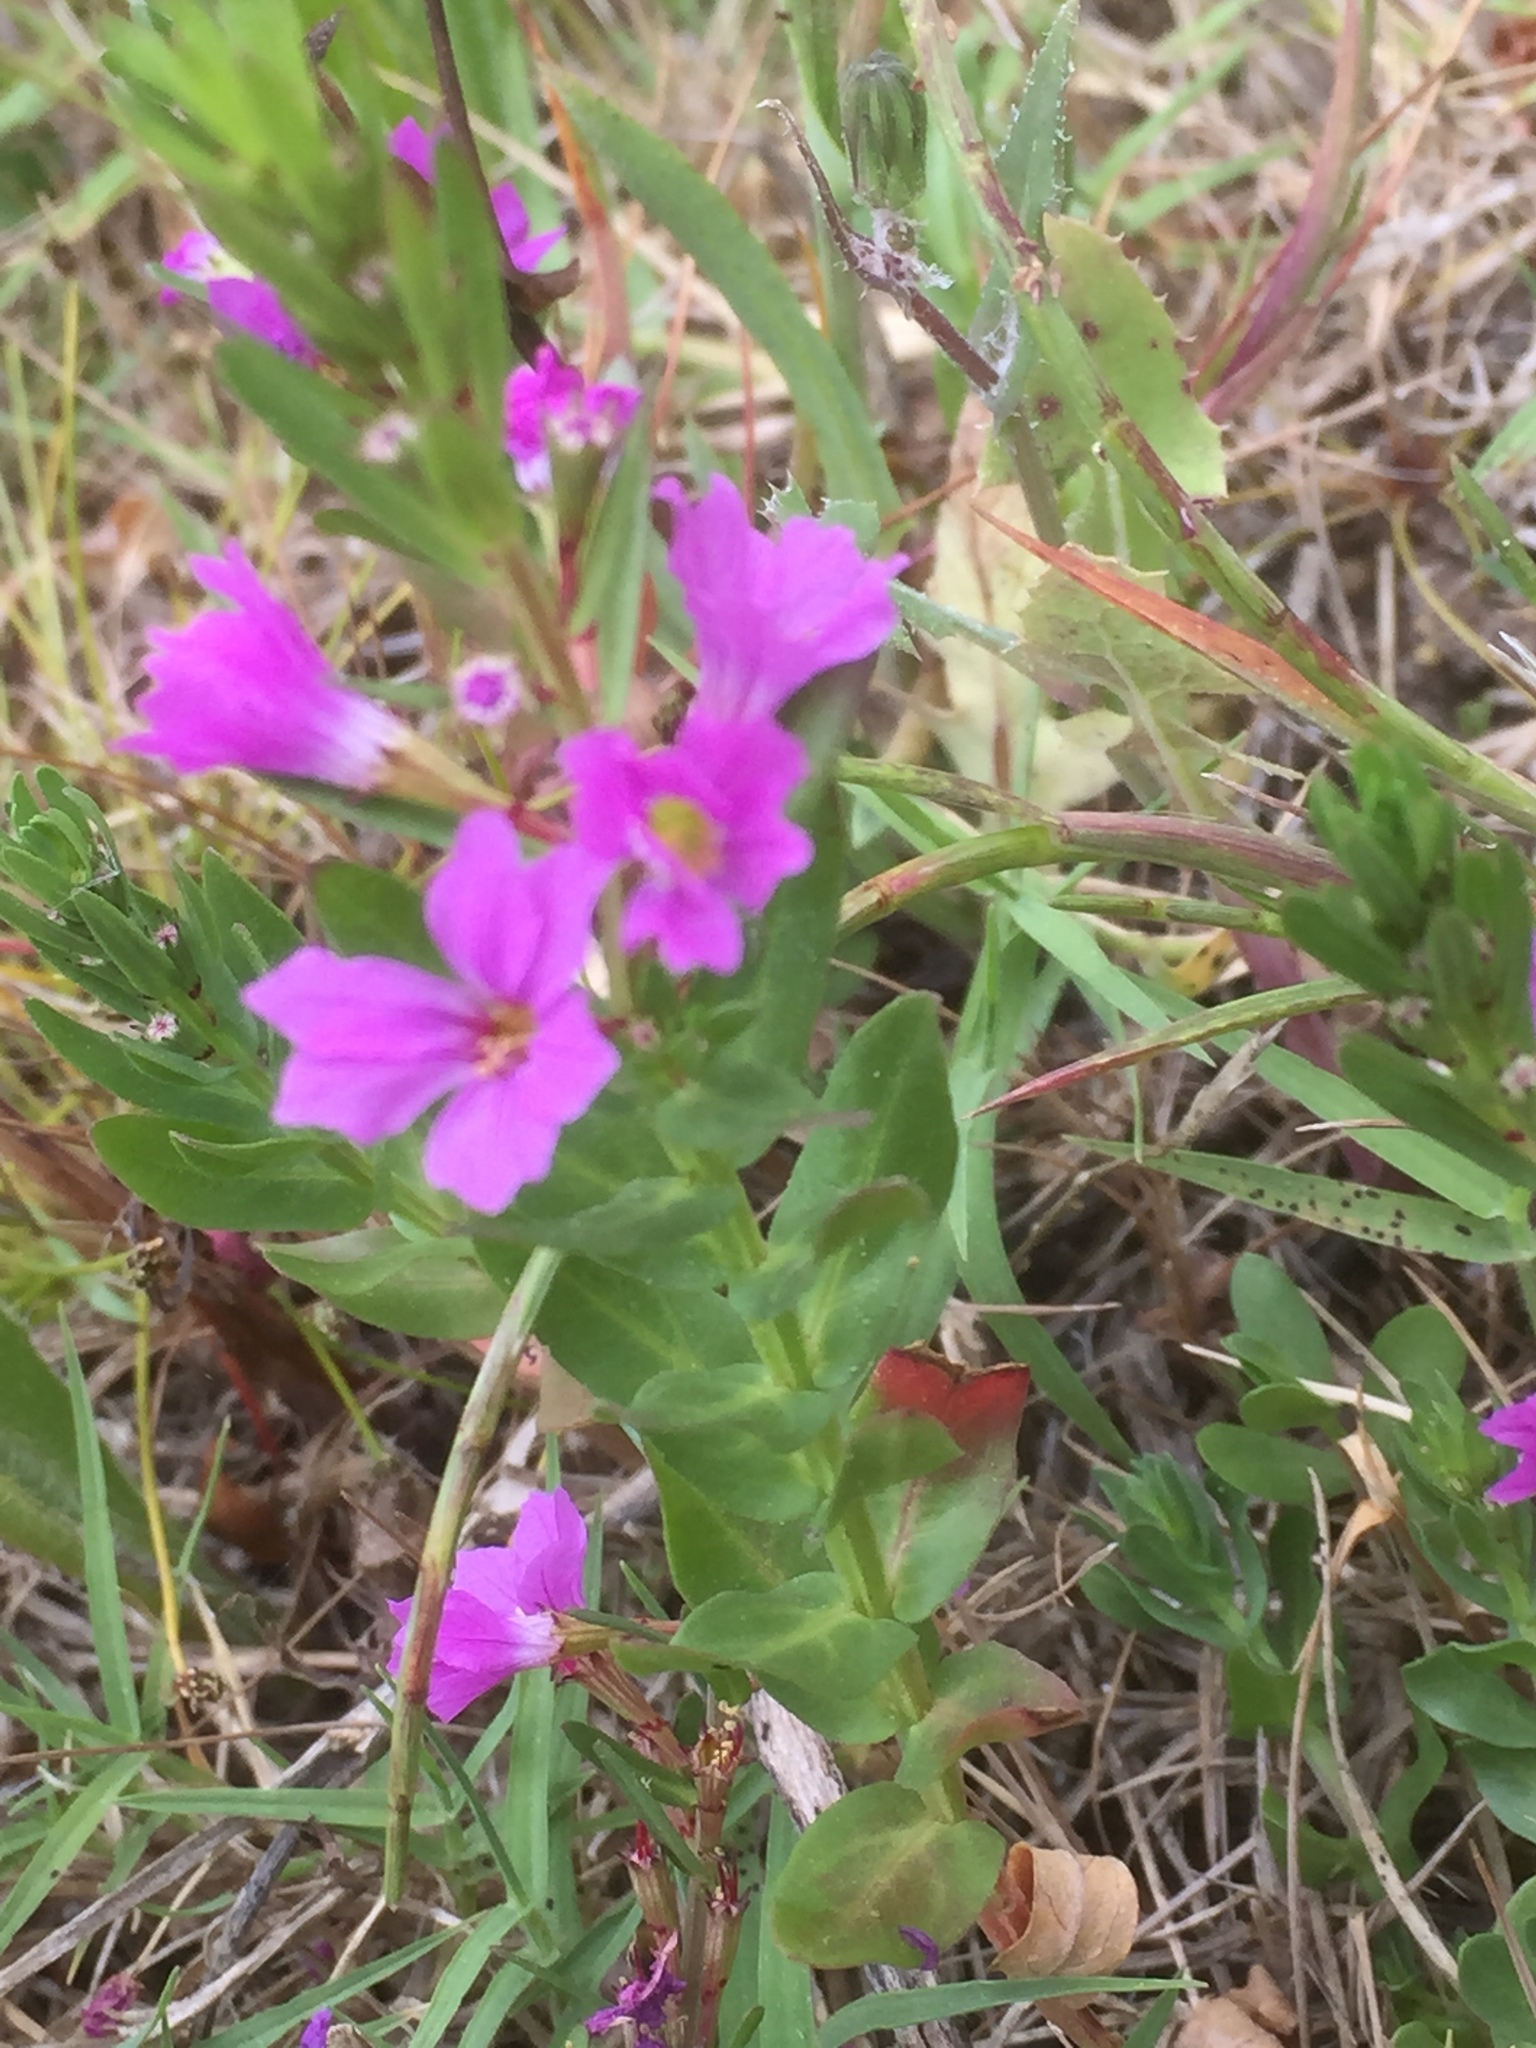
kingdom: Plantae
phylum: Tracheophyta
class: Magnoliopsida
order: Myrtales
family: Lythraceae
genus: Lythrum
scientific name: Lythrum junceum
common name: False grass-poly
